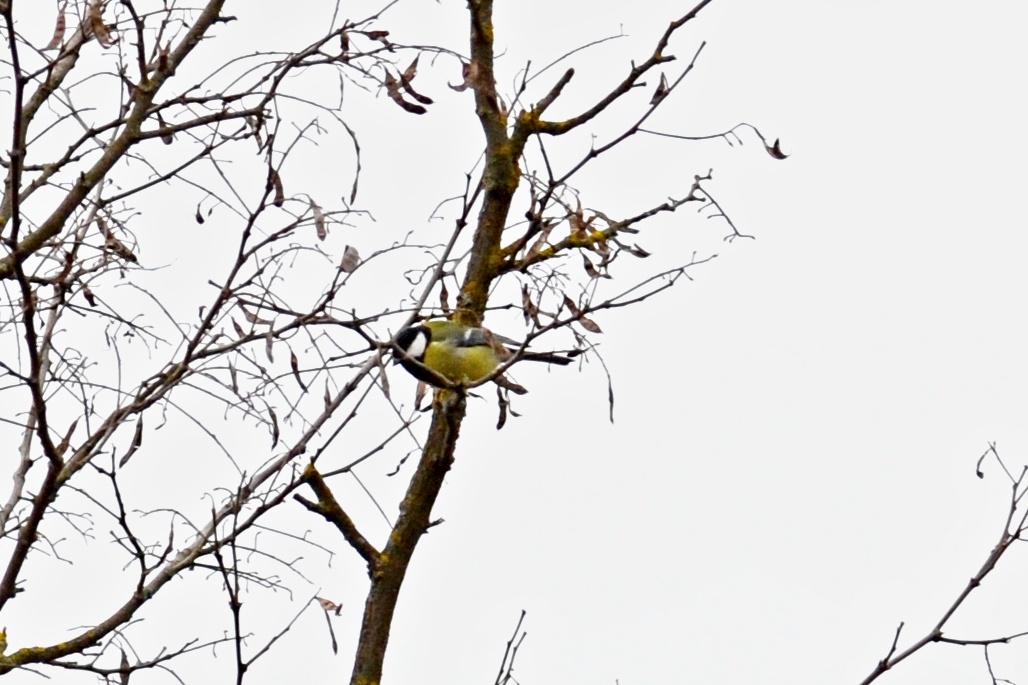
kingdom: Animalia
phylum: Chordata
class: Aves
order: Passeriformes
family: Paridae
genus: Parus
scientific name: Parus major
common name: Great tit
